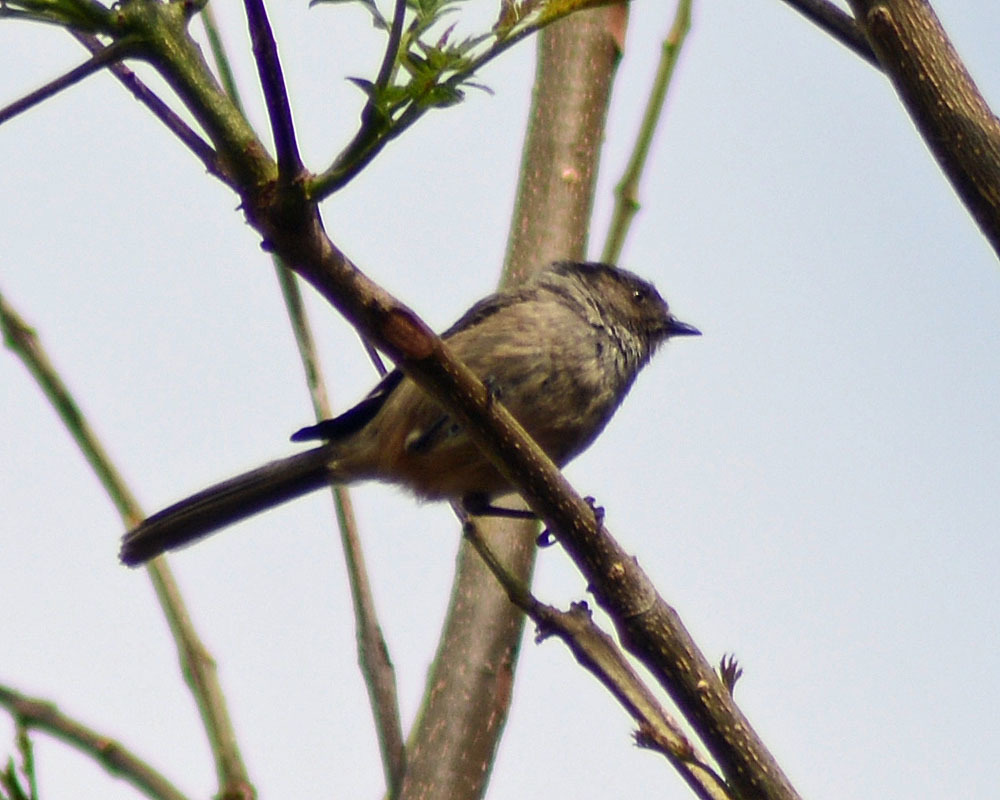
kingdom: Animalia
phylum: Chordata
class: Aves
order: Passeriformes
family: Aegithalidae
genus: Psaltriparus
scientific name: Psaltriparus minimus
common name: American bushtit
